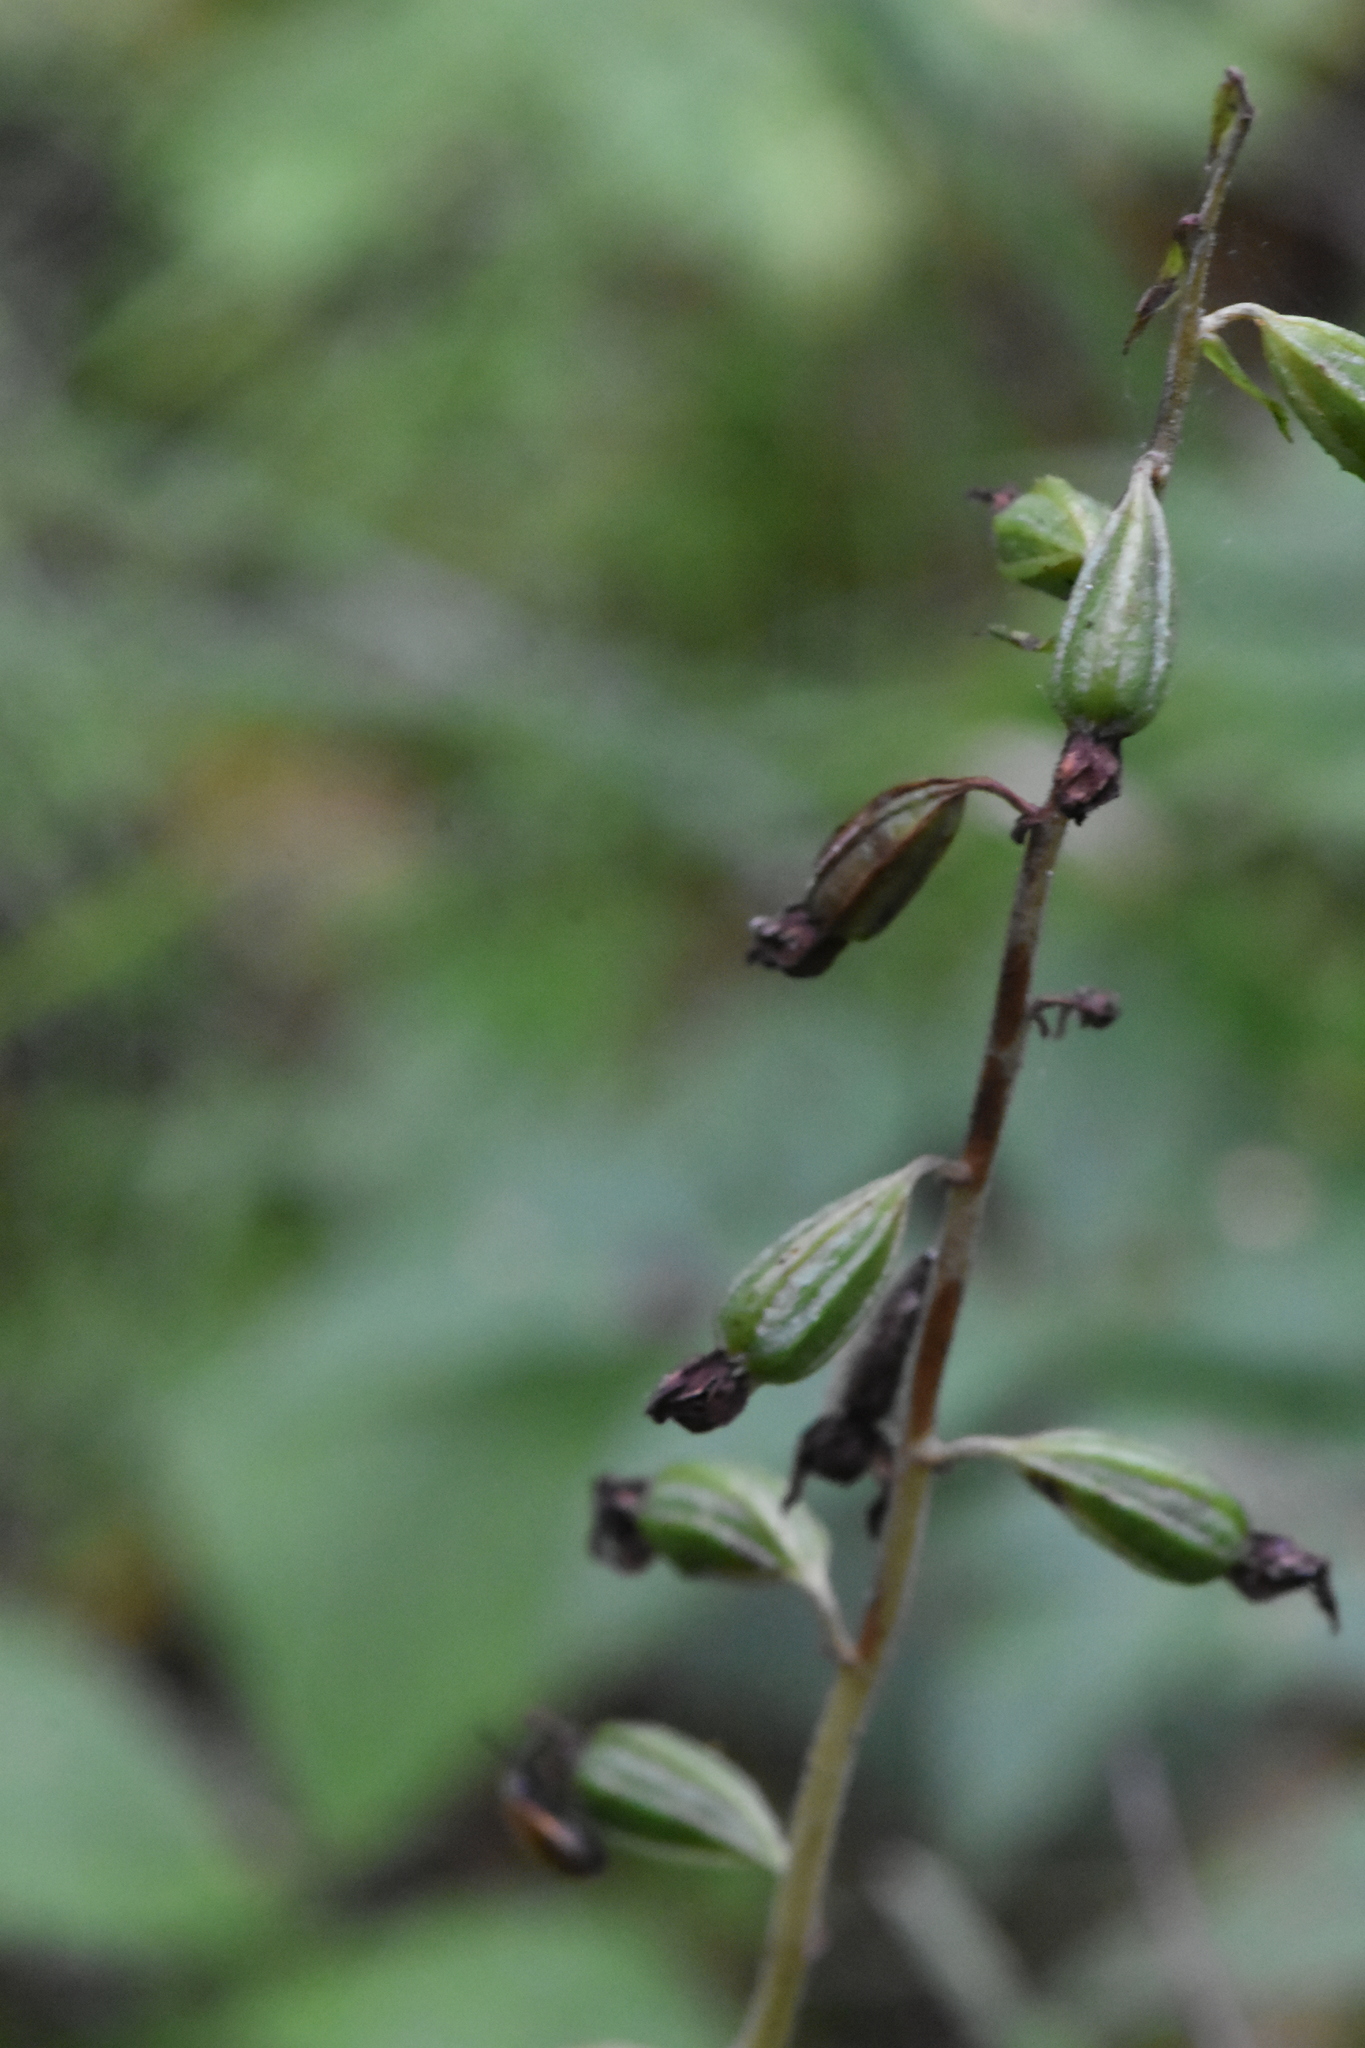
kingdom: Plantae
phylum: Tracheophyta
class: Liliopsida
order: Asparagales
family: Orchidaceae
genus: Epipactis
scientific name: Epipactis helleborine
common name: Broad-leaved helleborine
